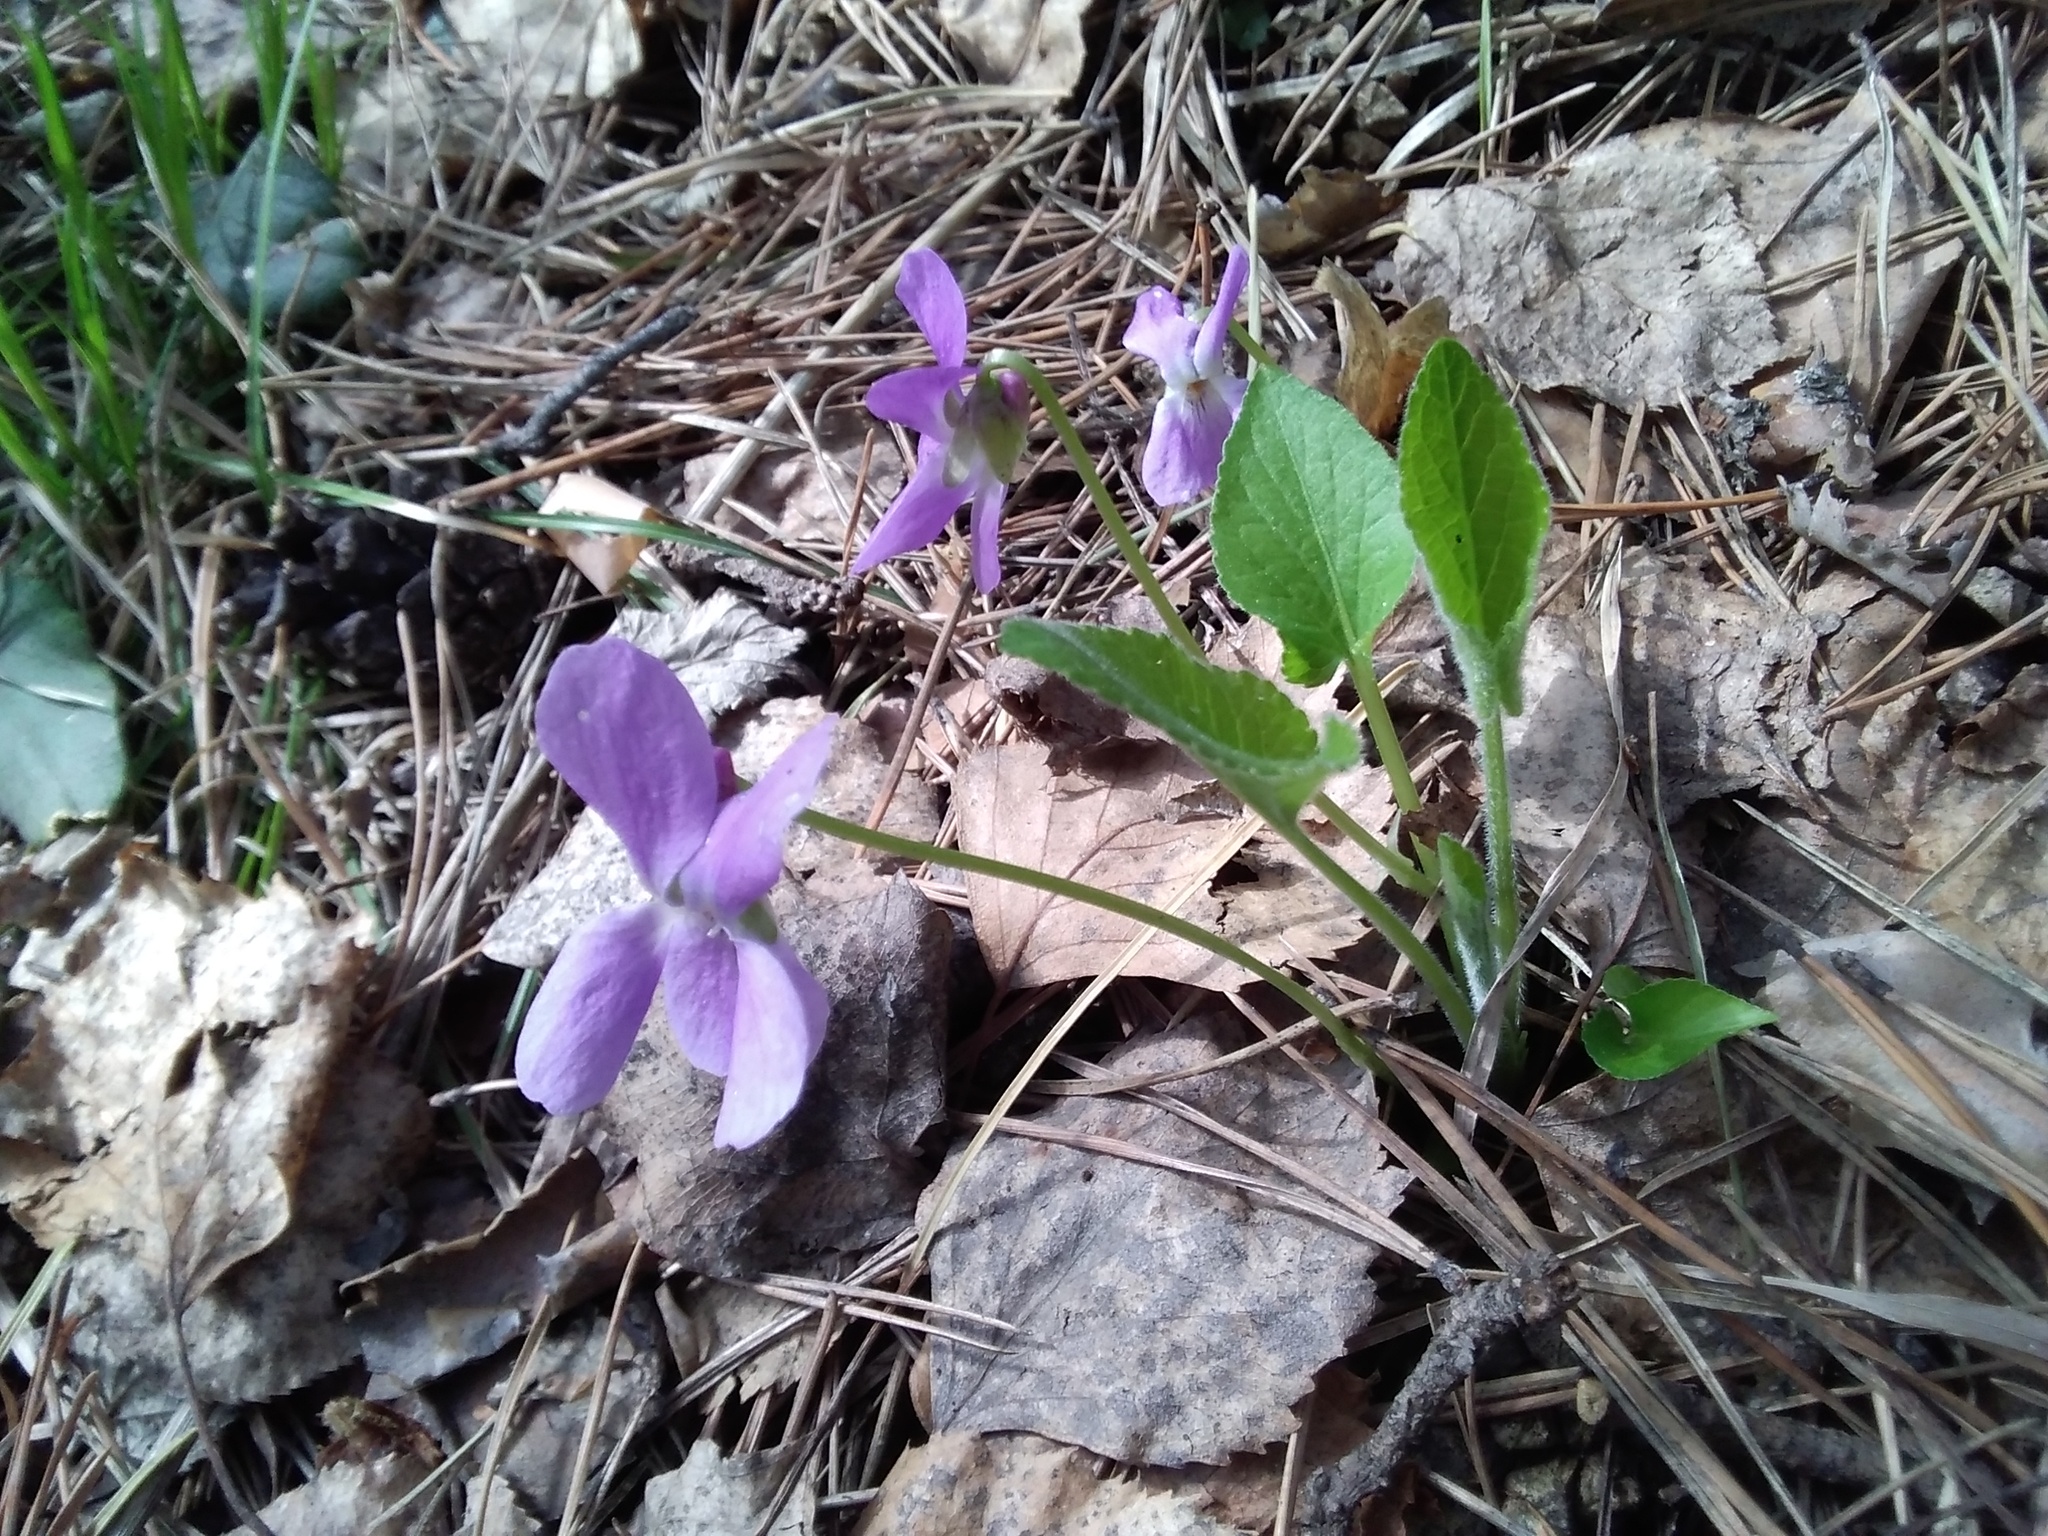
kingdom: Plantae
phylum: Tracheophyta
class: Magnoliopsida
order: Malpighiales
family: Violaceae
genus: Viola
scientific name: Viola hirta
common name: Hairy violet
